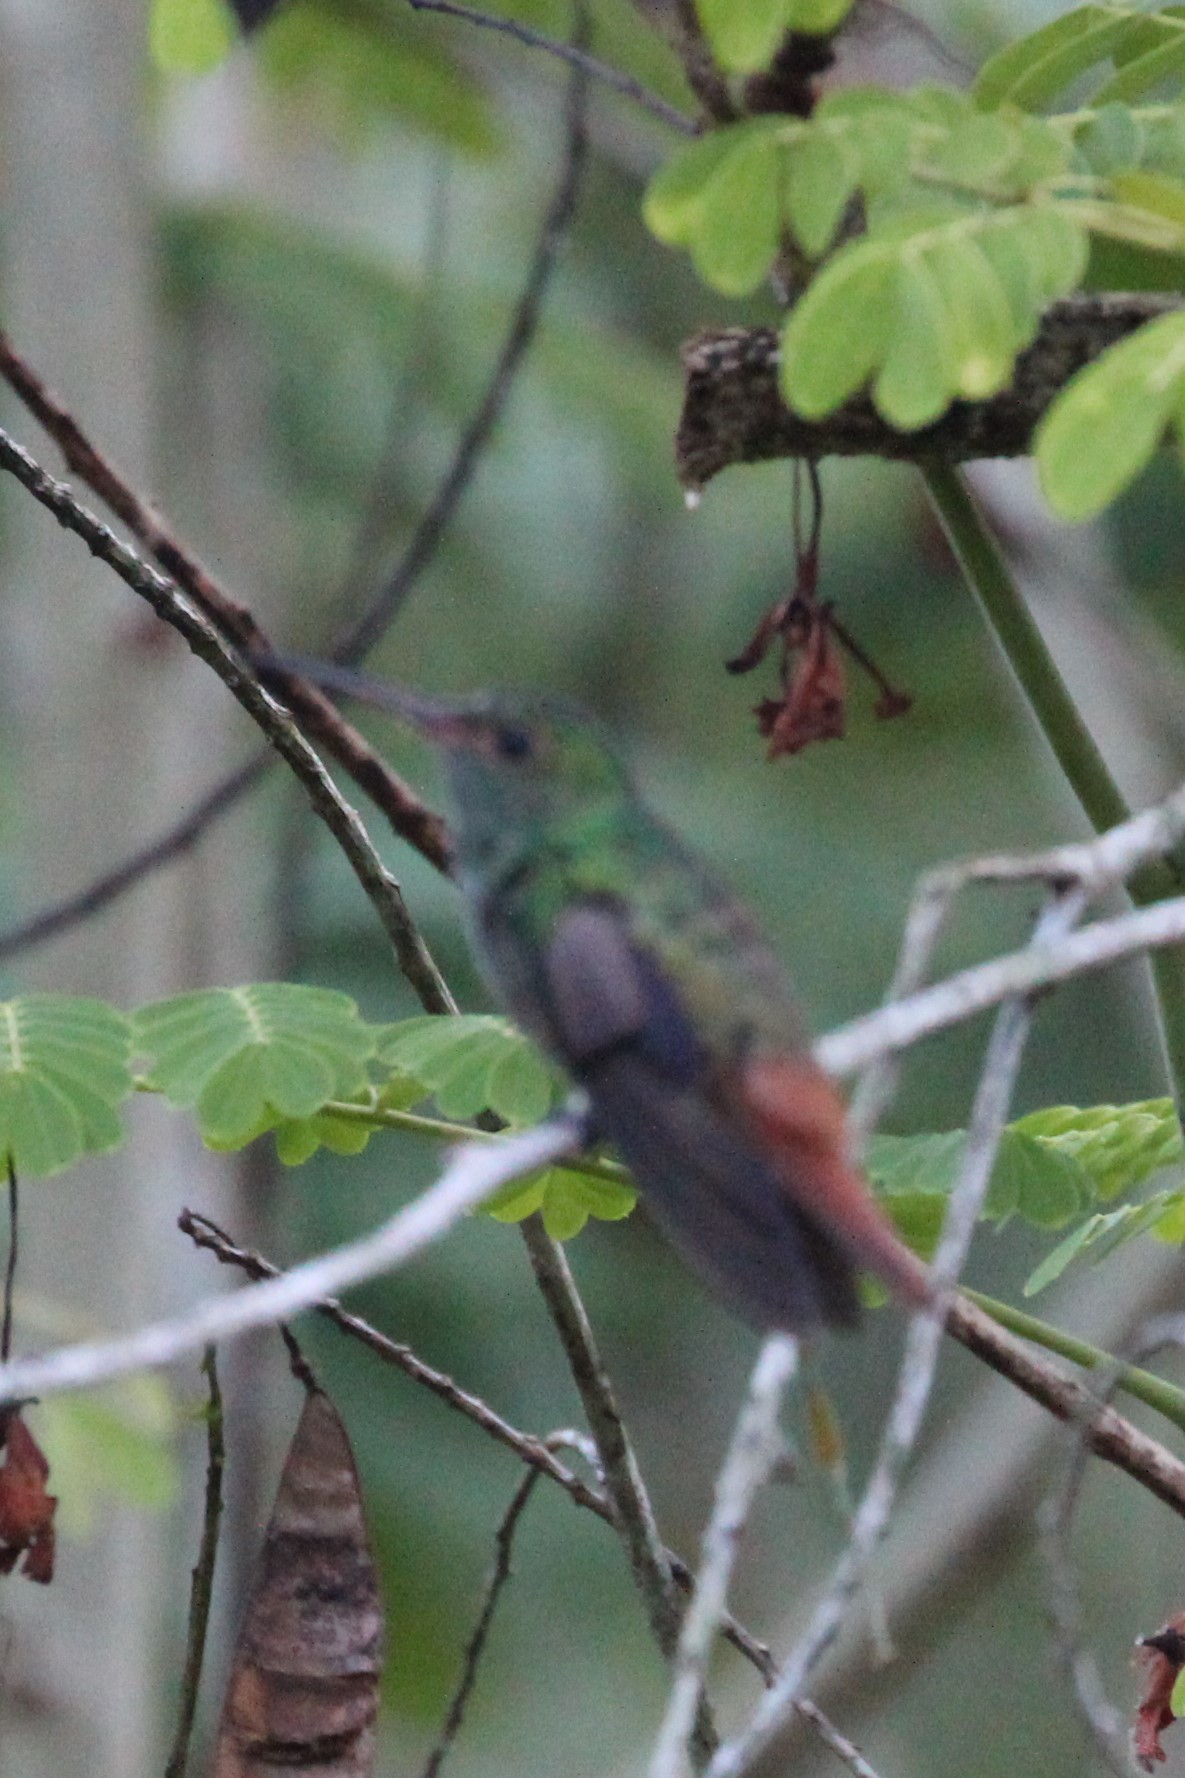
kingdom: Animalia
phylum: Chordata
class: Aves
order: Apodiformes
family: Trochilidae
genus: Amazilia
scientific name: Amazilia tzacatl
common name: Rufous-tailed hummingbird
